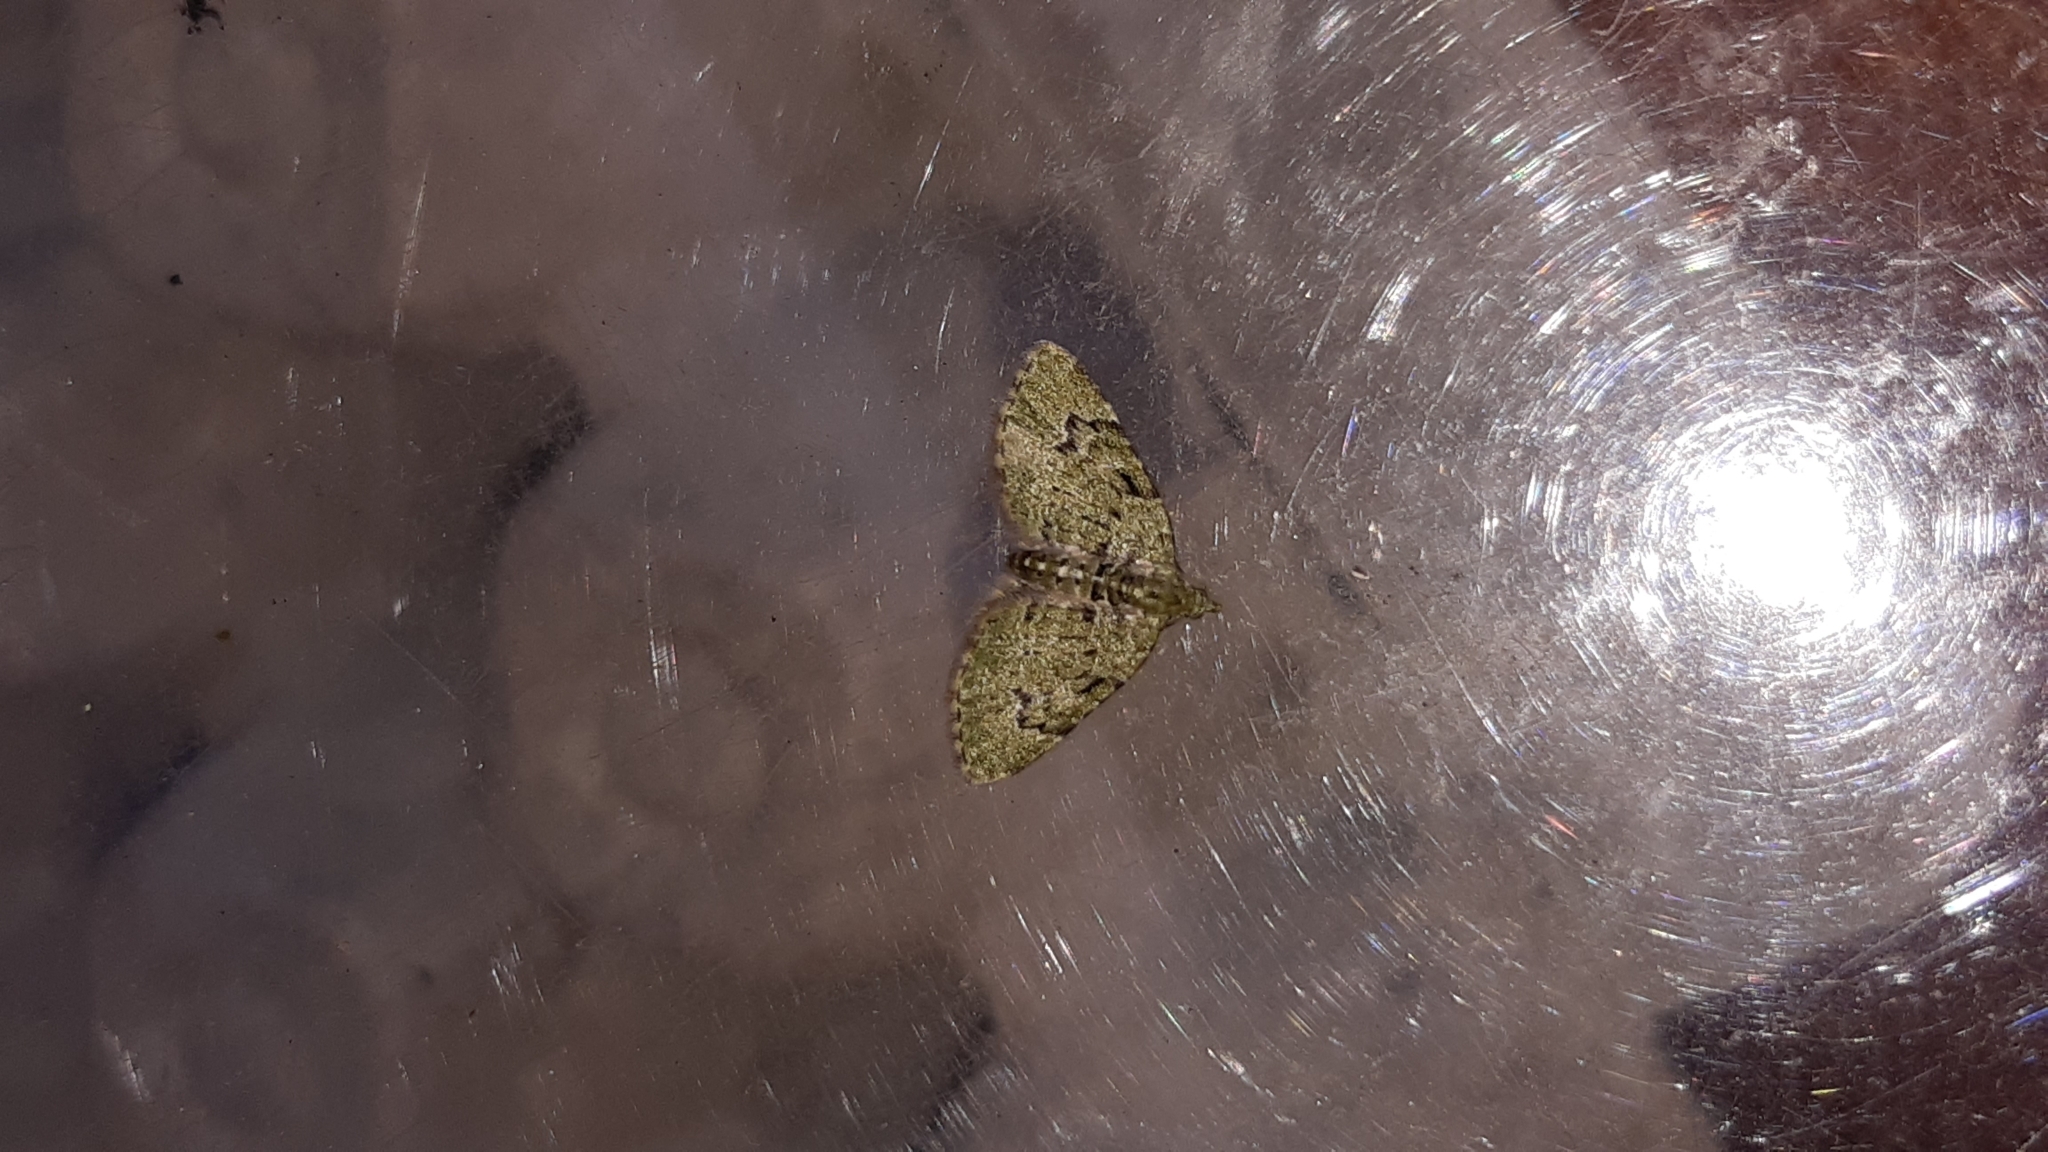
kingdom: Animalia
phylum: Arthropoda
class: Insecta
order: Lepidoptera
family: Geometridae
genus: Chloroclystis
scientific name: Chloroclystis v-ata
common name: V-pug
